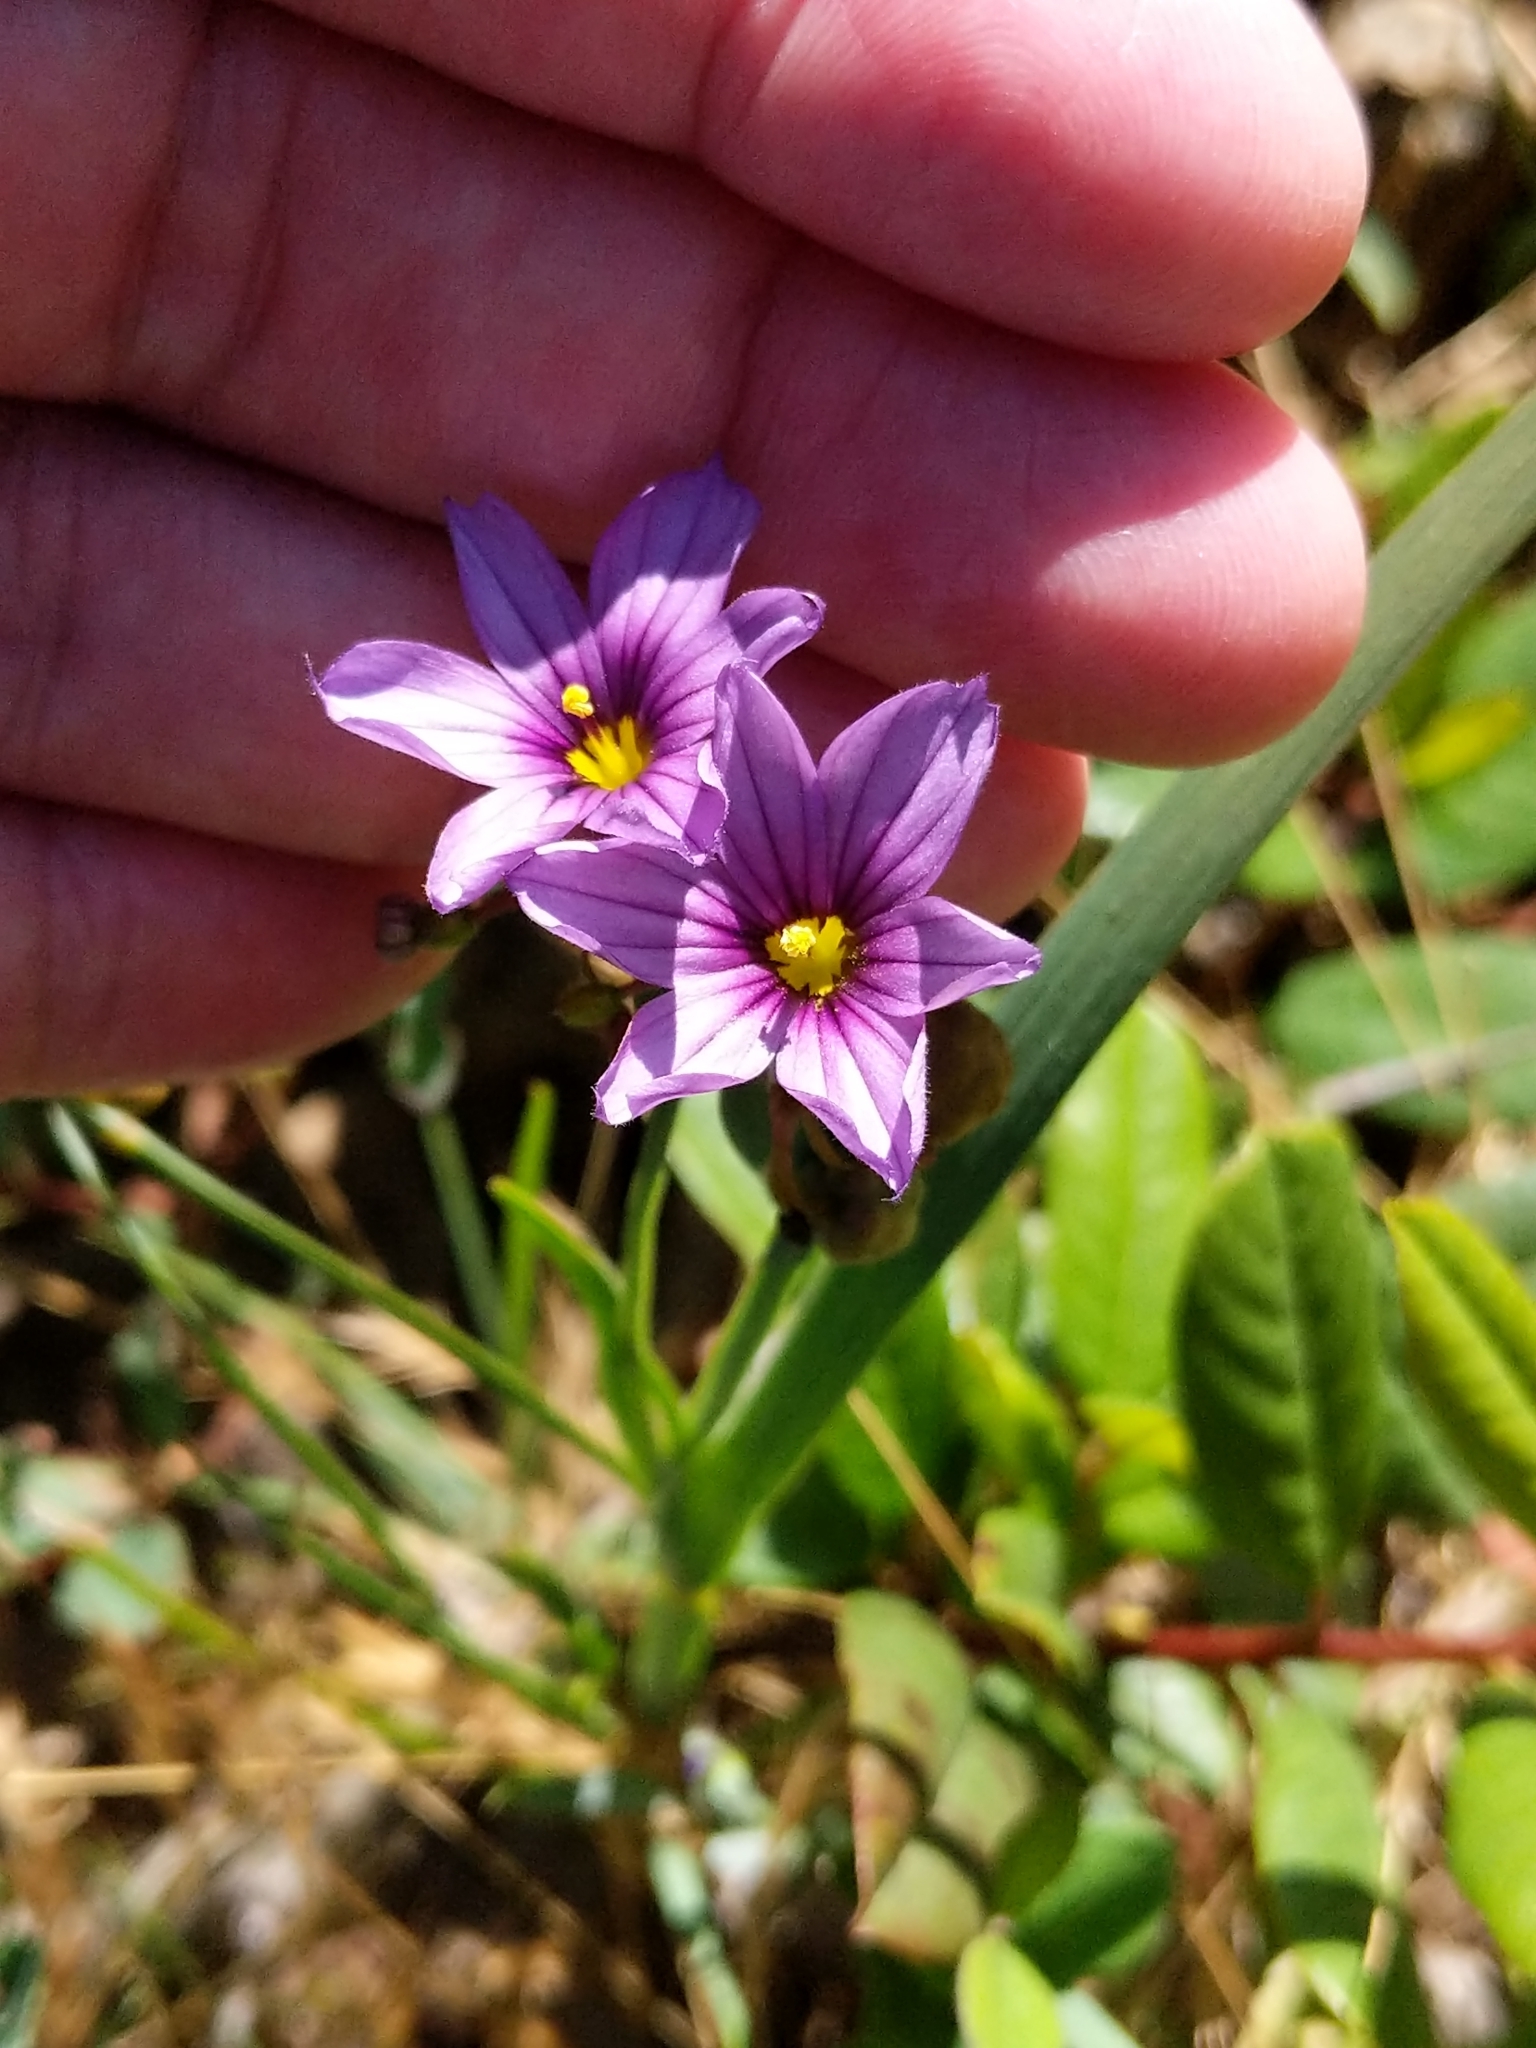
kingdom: Plantae
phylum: Tracheophyta
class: Liliopsida
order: Asparagales
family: Iridaceae
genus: Sisyrinchium
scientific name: Sisyrinchium bellum
